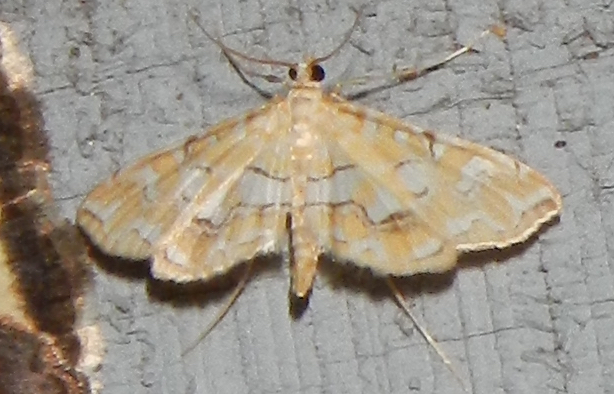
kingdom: Animalia
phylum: Arthropoda
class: Insecta
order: Lepidoptera
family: Crambidae
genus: Elophila
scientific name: Elophila icciusalis
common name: Pondside pyralid moth
